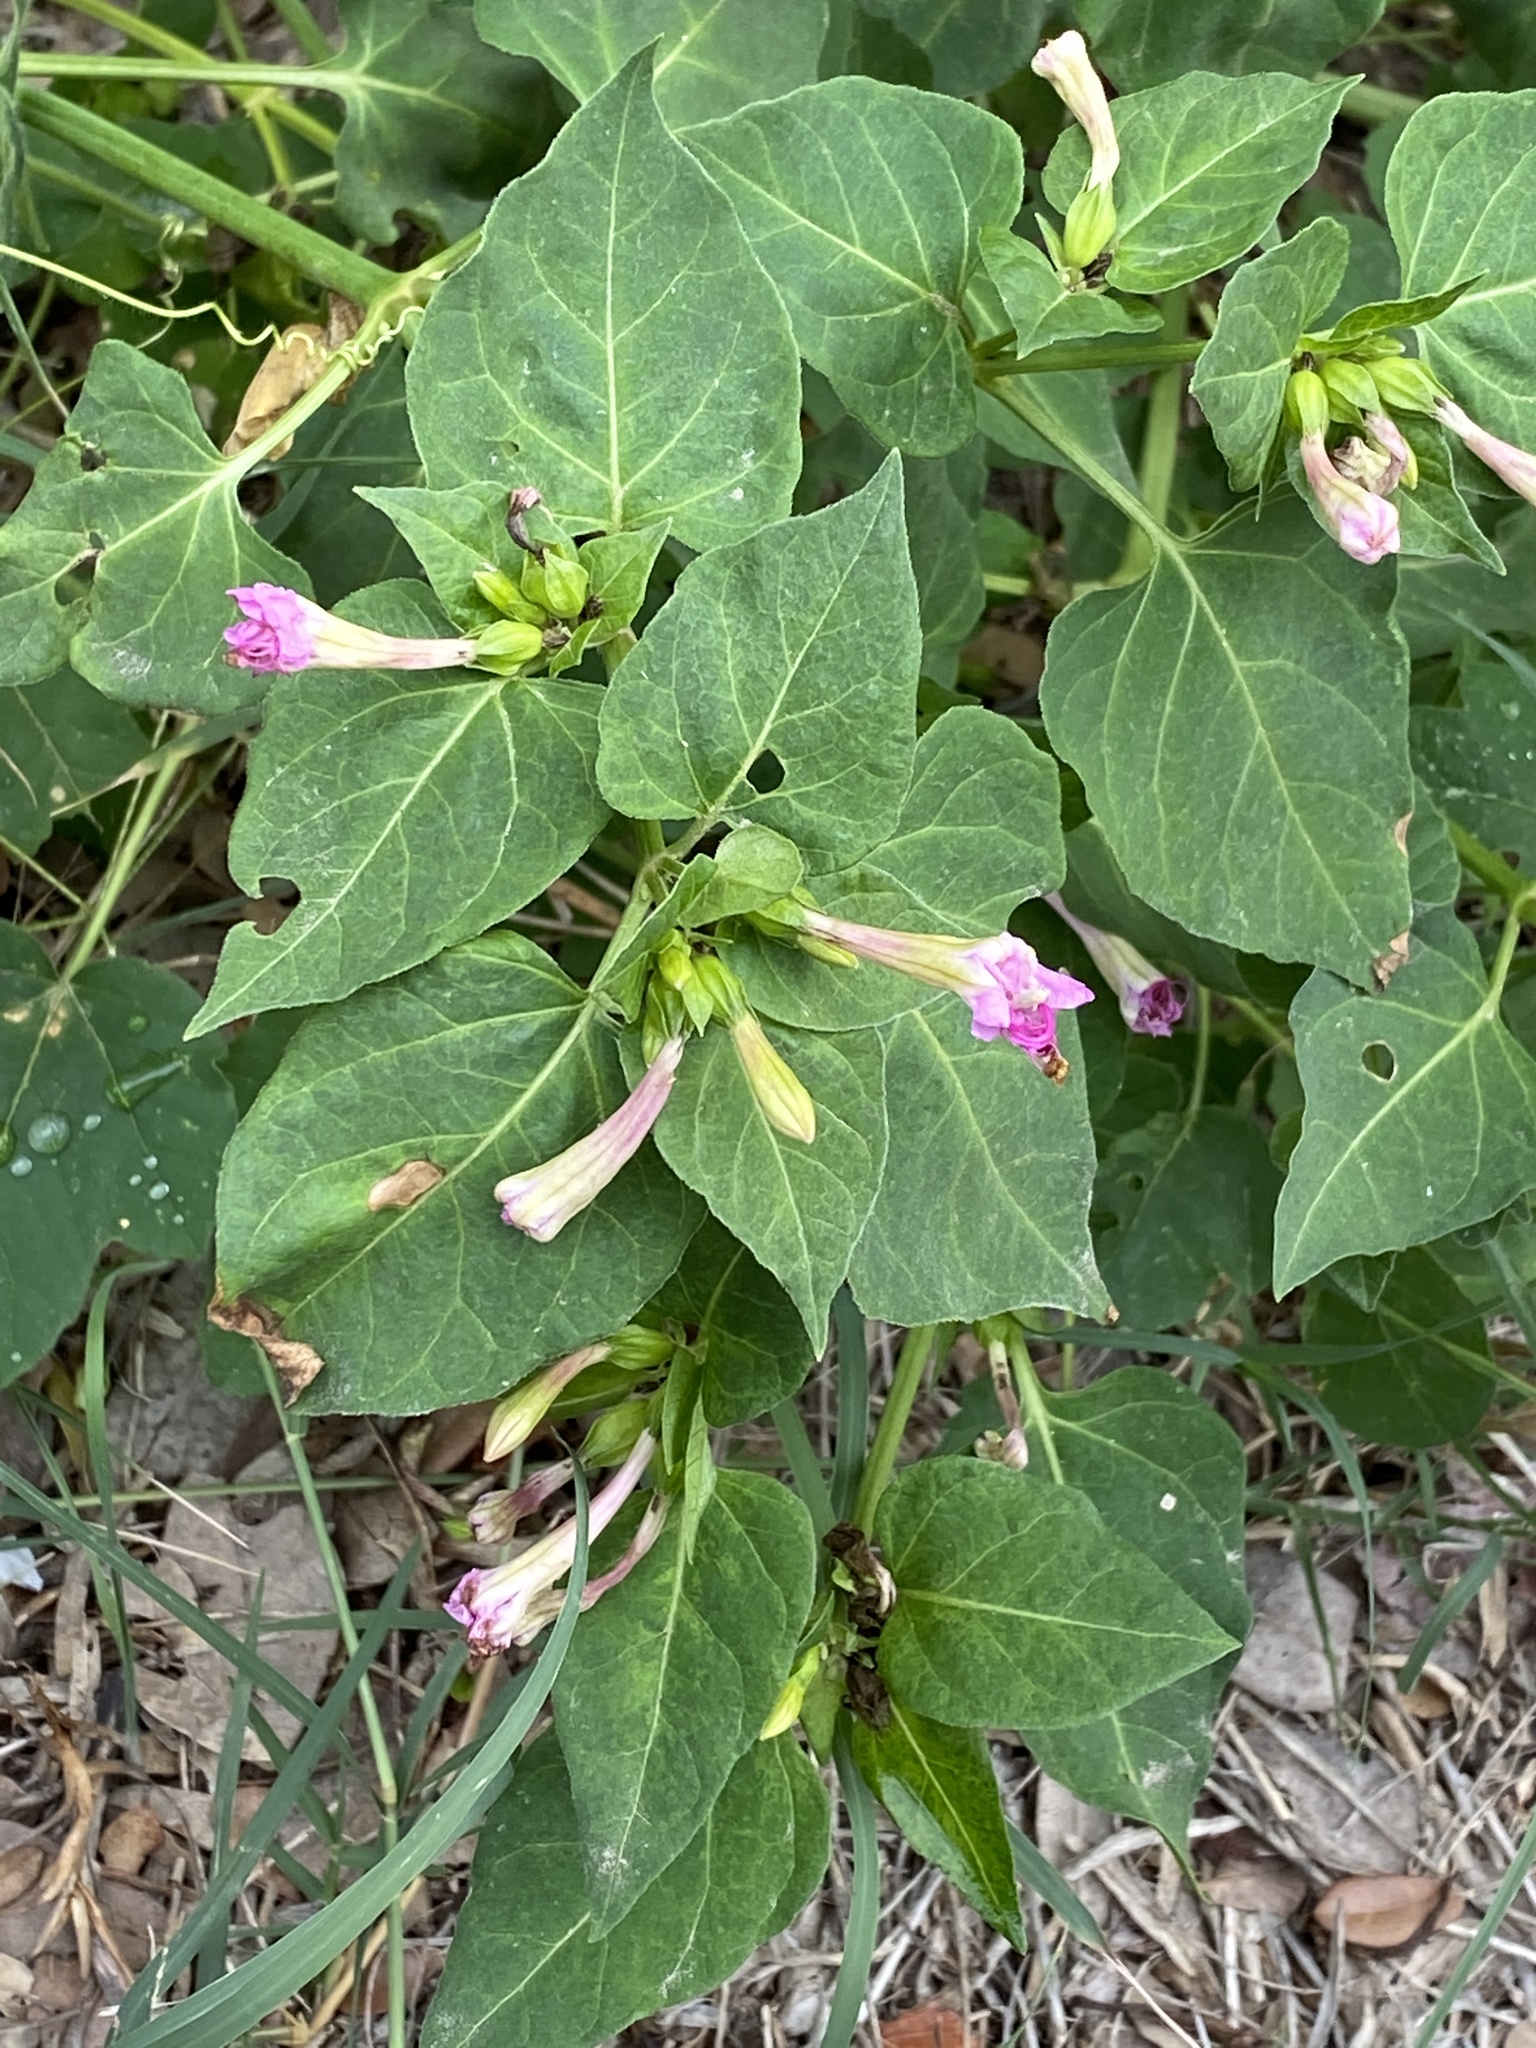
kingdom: Plantae
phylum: Tracheophyta
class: Magnoliopsida
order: Caryophyllales
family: Nyctaginaceae
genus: Mirabilis
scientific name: Mirabilis jalapa
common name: Marvel-of-peru
